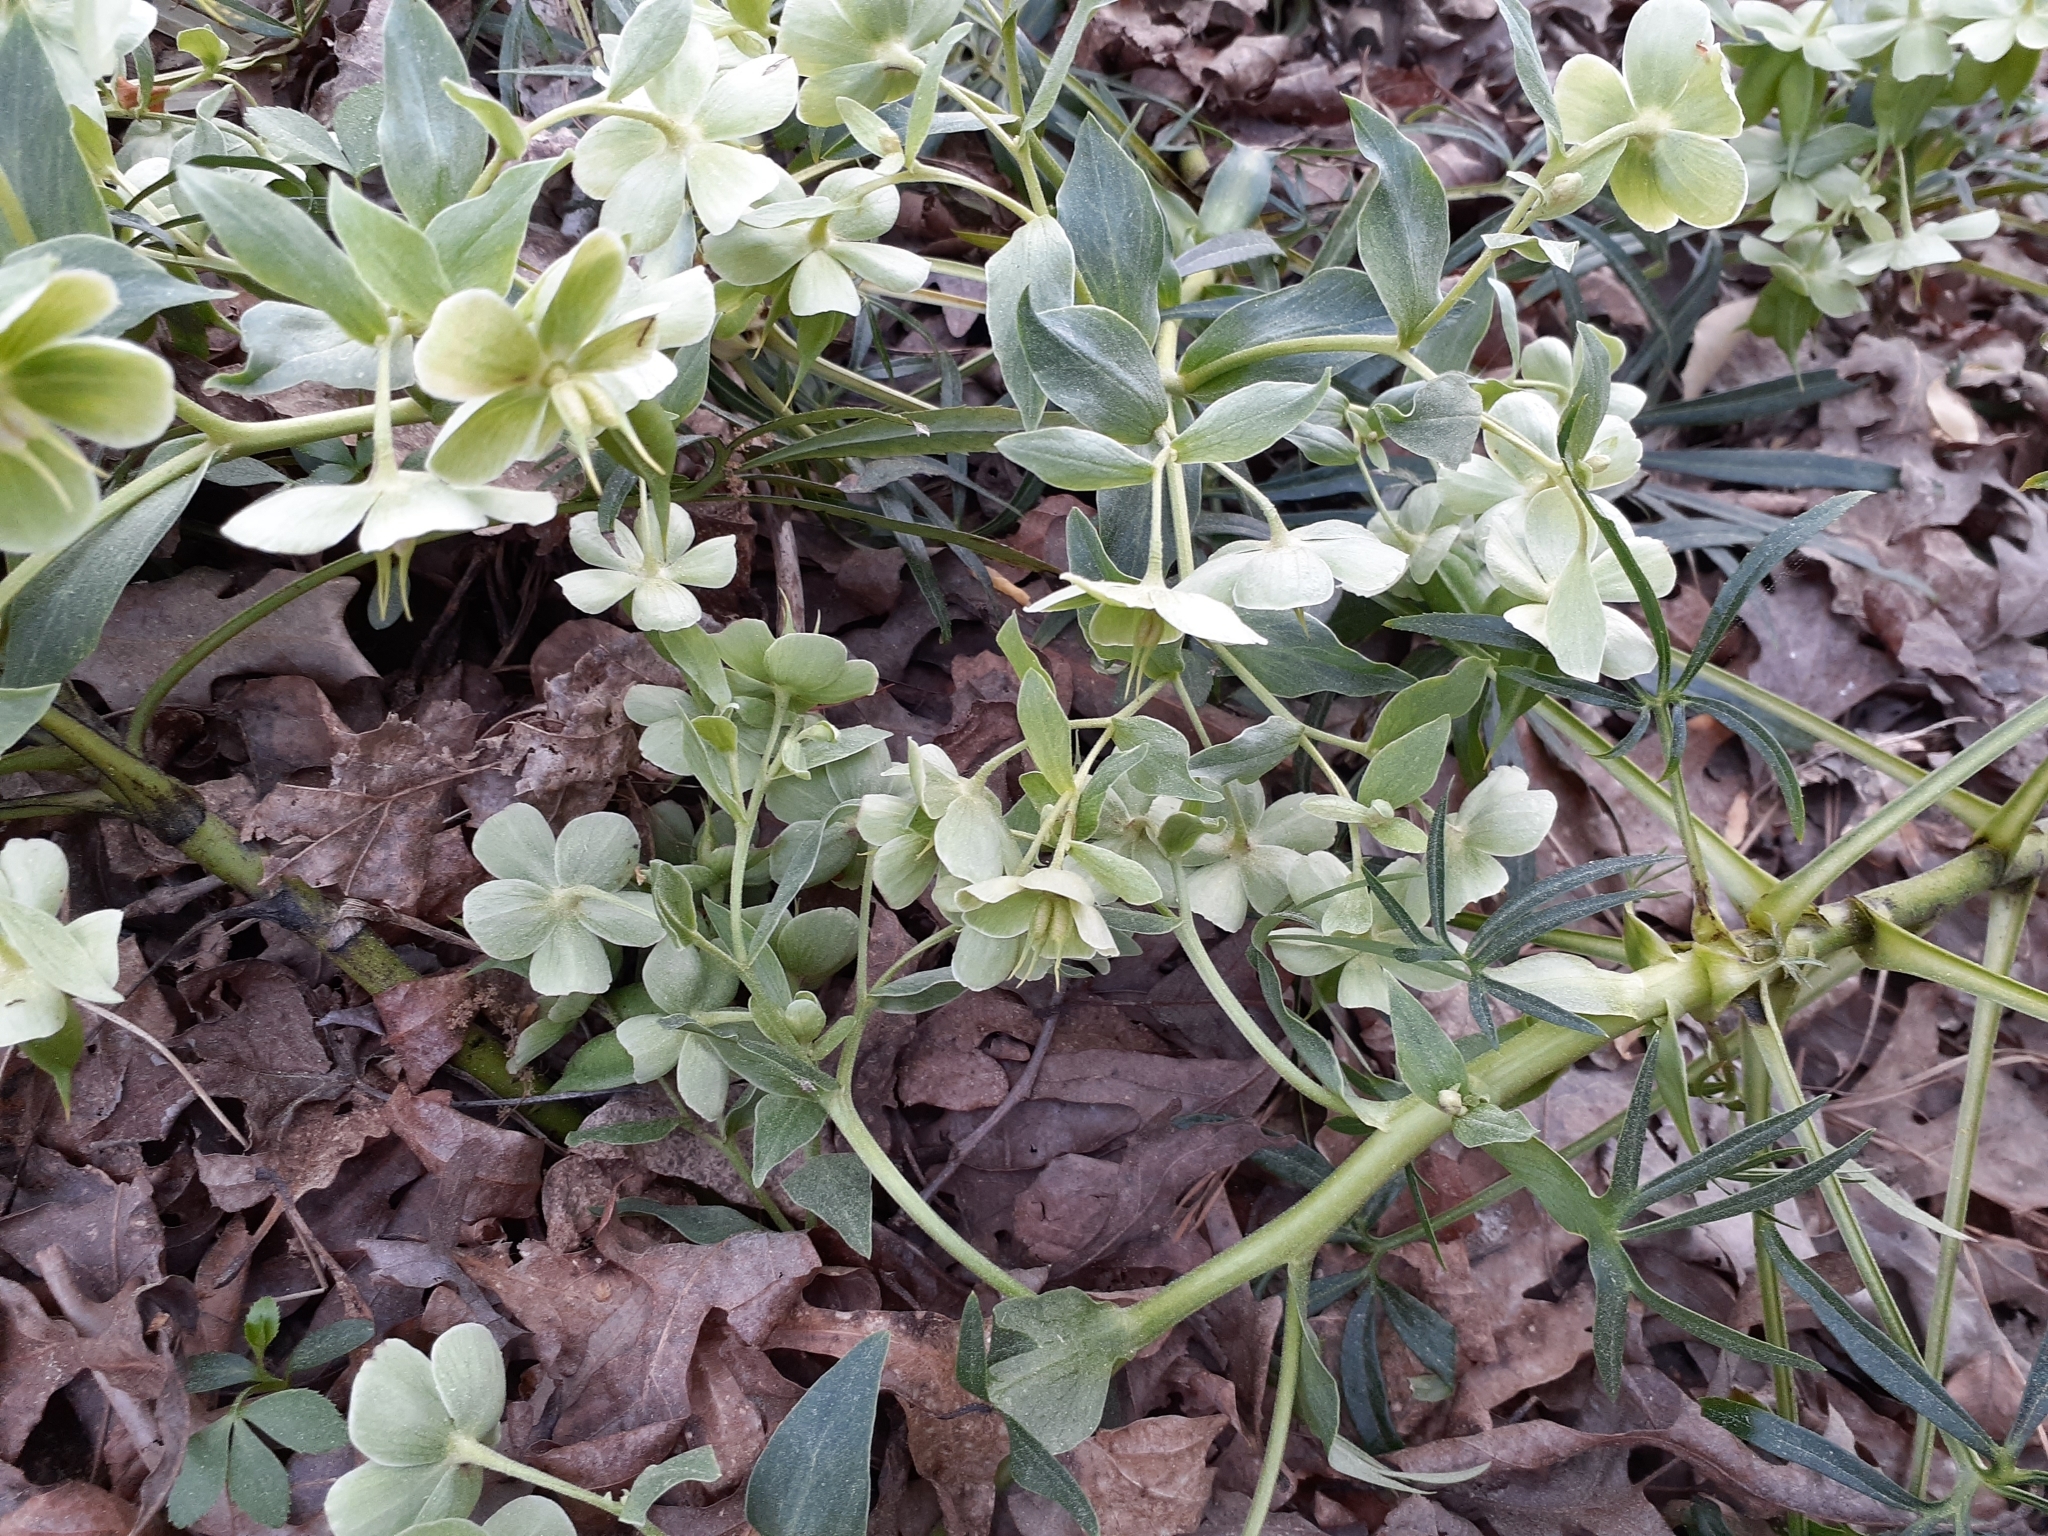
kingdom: Plantae
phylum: Tracheophyta
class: Magnoliopsida
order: Ranunculales
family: Ranunculaceae
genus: Helleborus
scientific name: Helleborus foetidus
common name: Stinking hellebore
